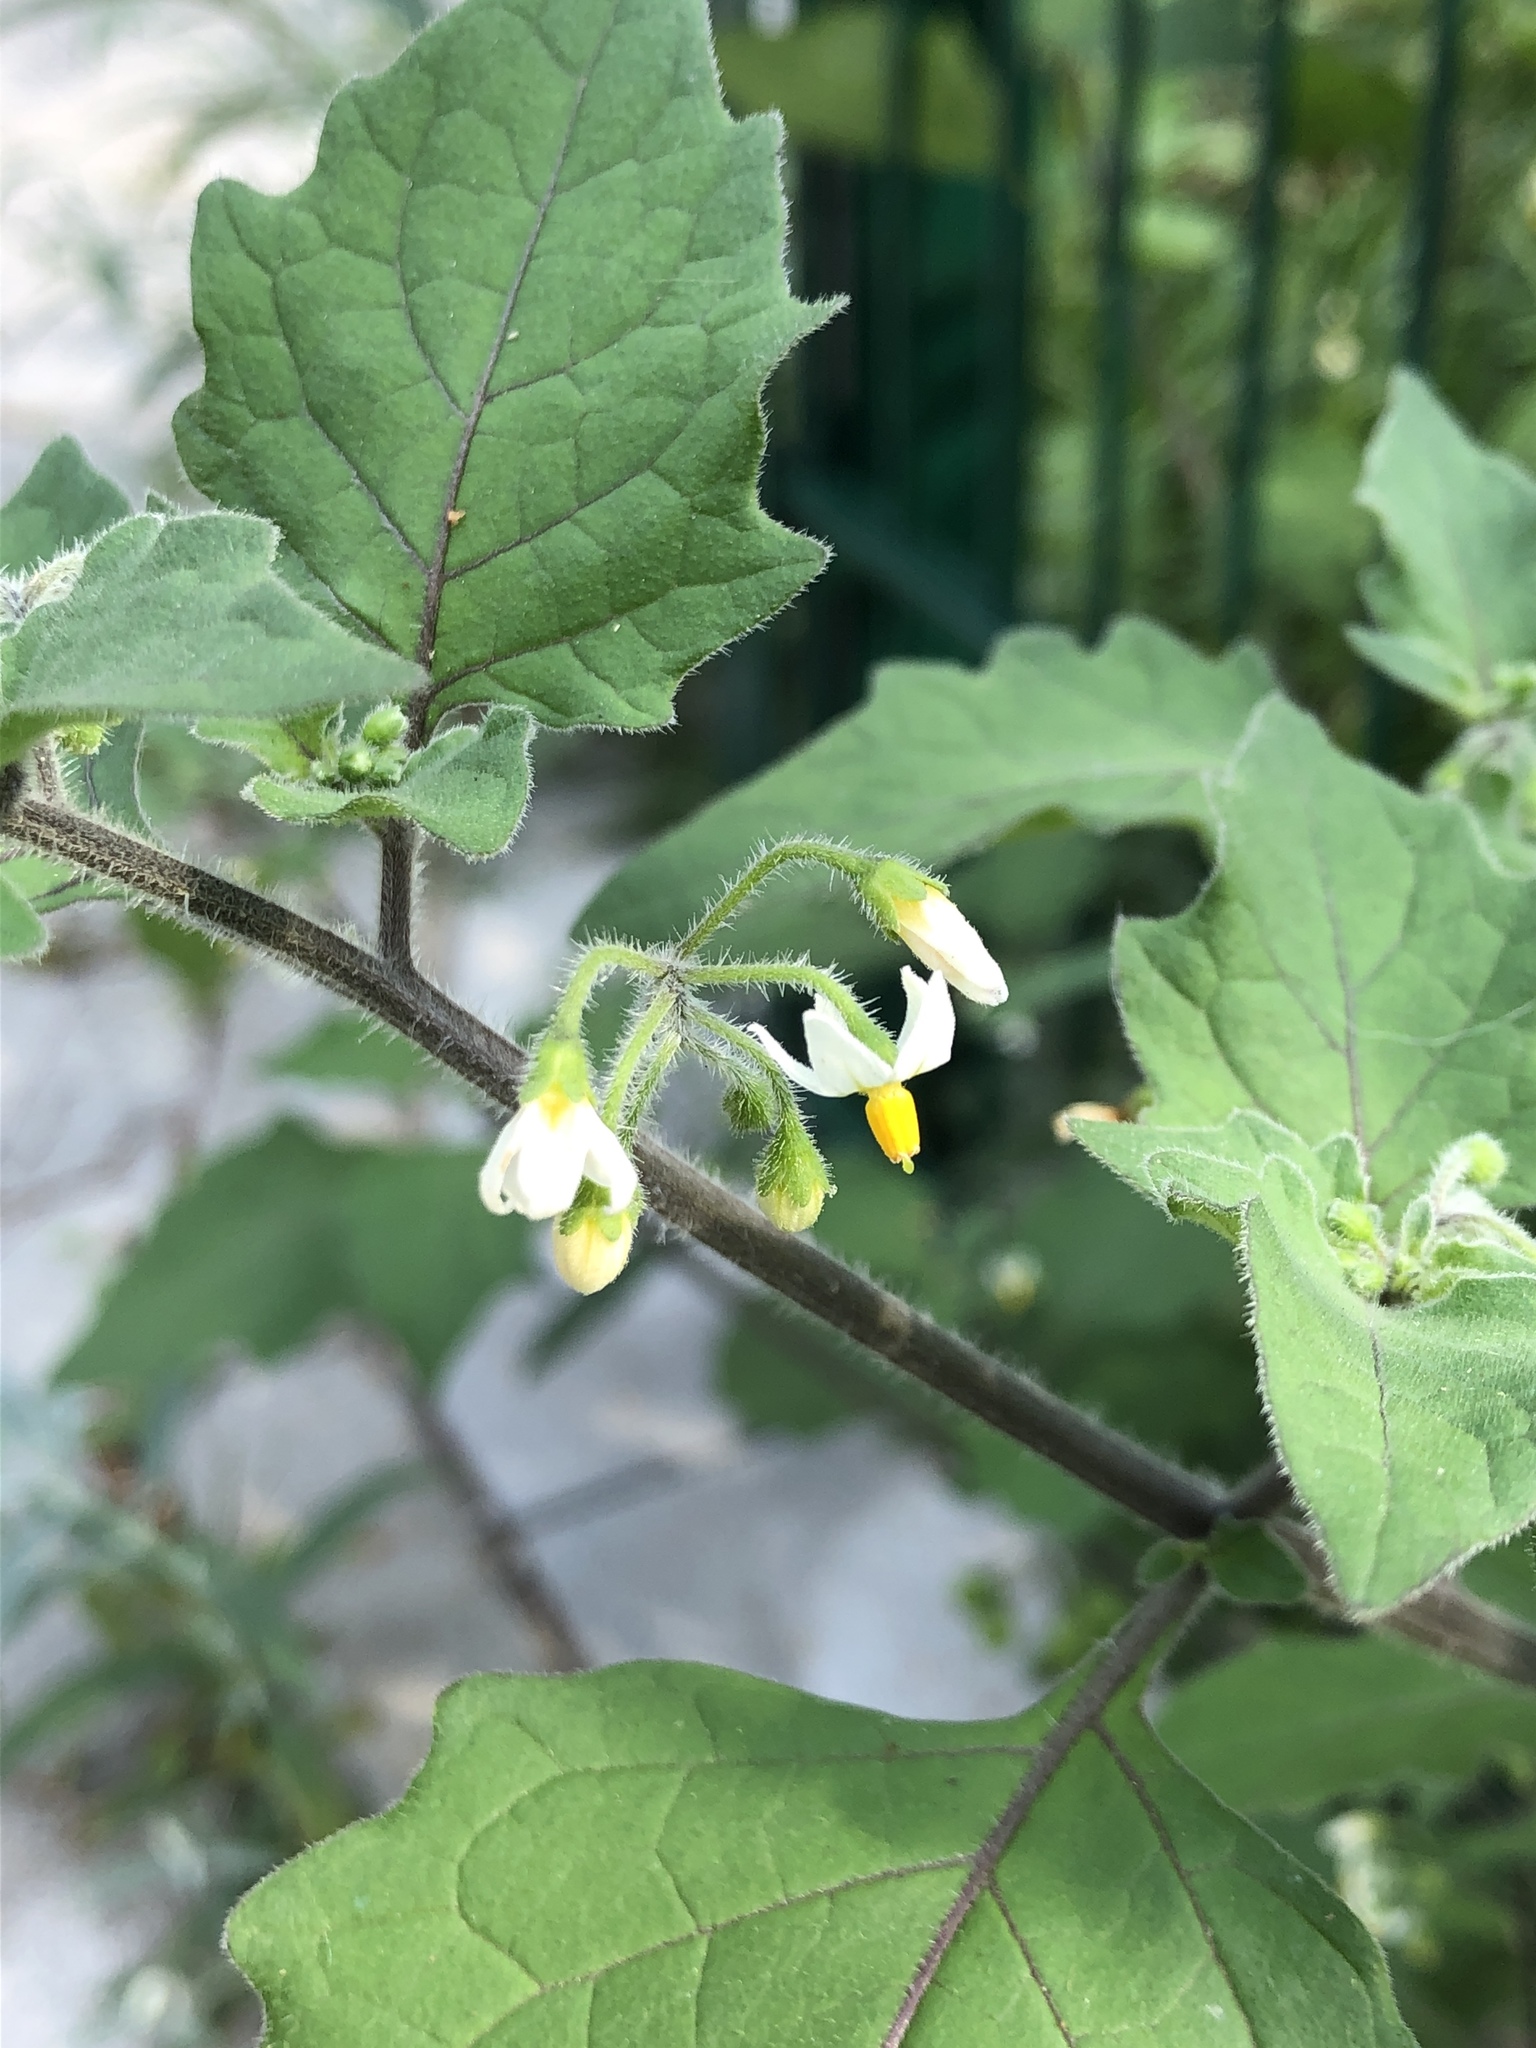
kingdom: Plantae
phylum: Tracheophyta
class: Magnoliopsida
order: Solanales
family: Solanaceae
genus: Solanum
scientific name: Solanum nigrum
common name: Black nightshade
